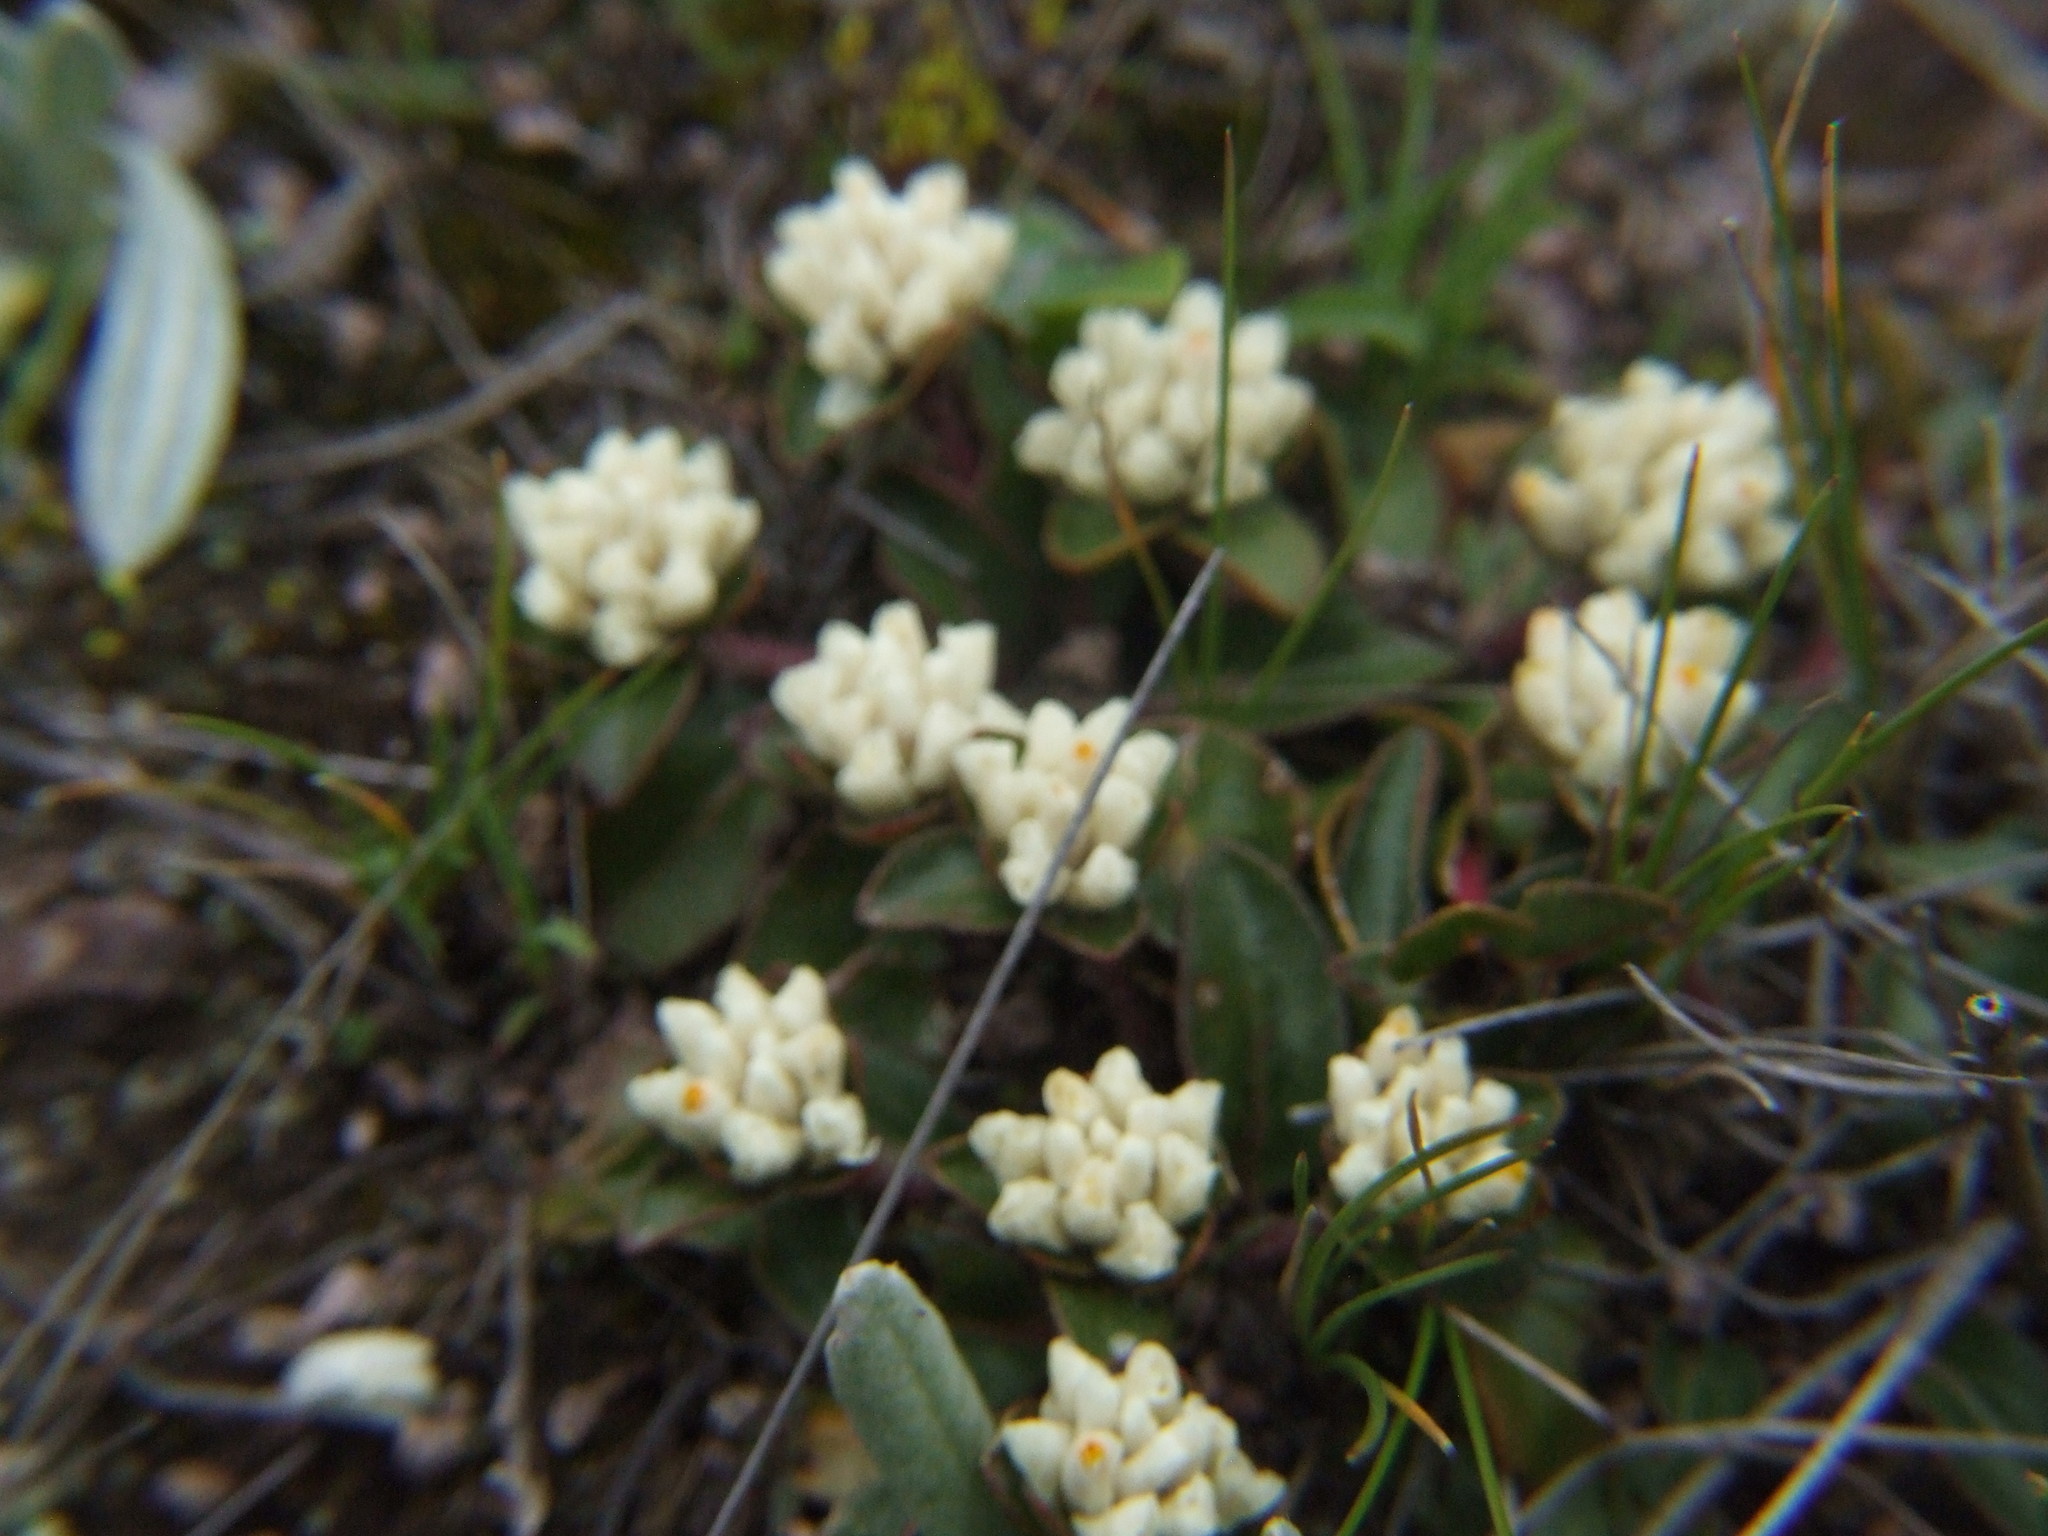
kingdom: Plantae
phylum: Tracheophyta
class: Magnoliopsida
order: Caryophyllales
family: Amaranthaceae
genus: Gomphrena
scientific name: Gomphrena meyeniana
